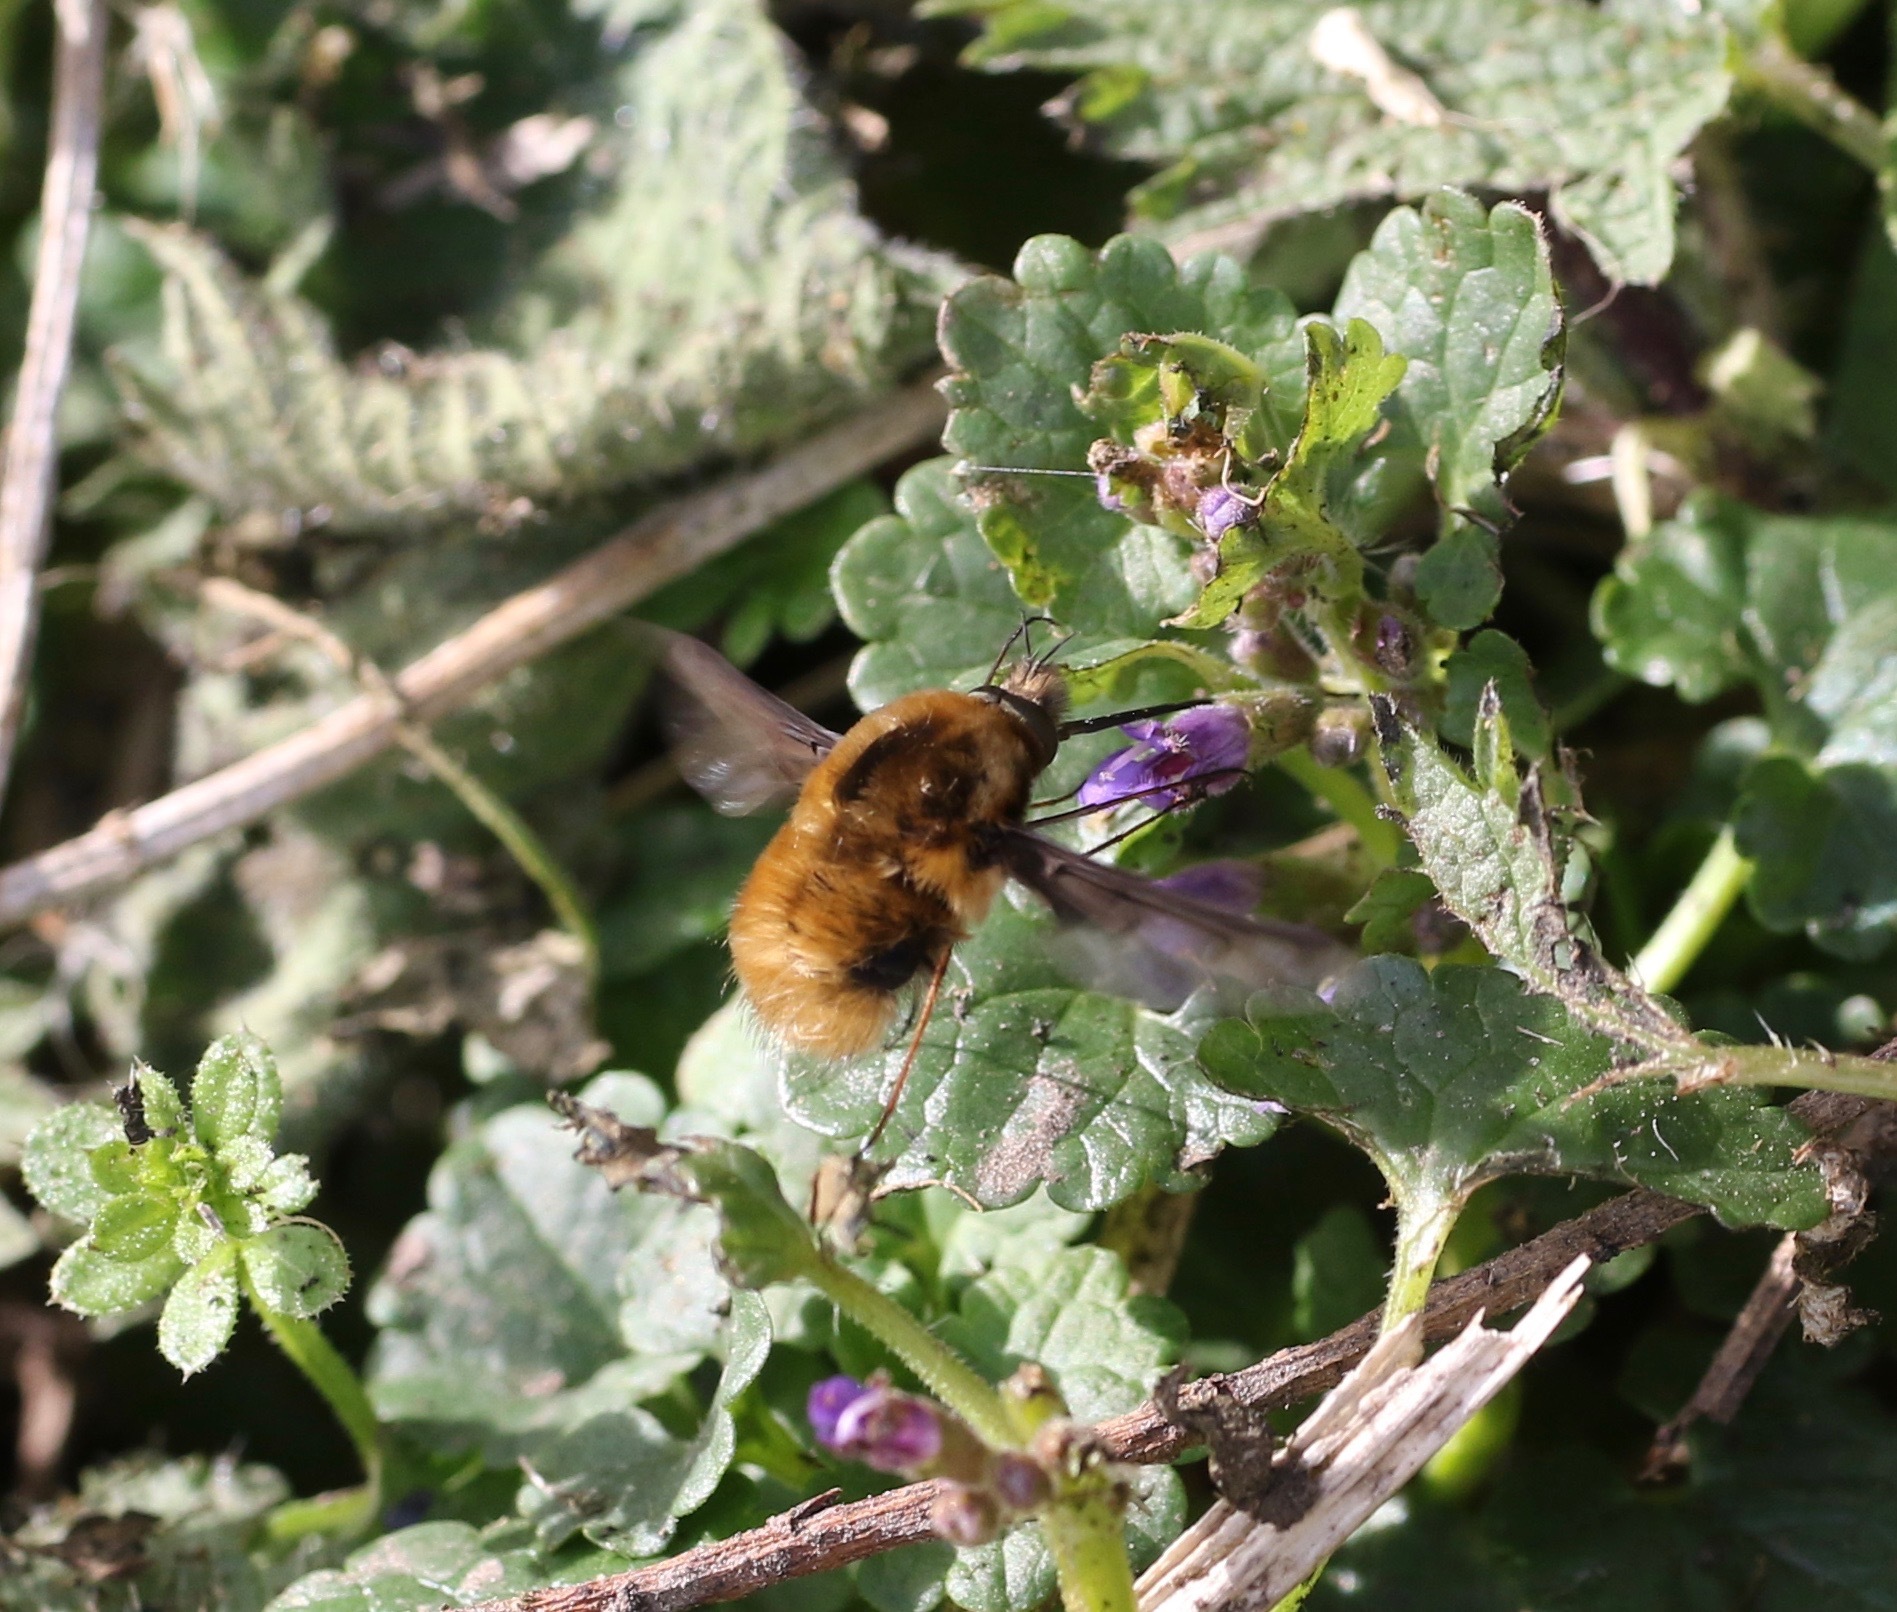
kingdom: Animalia
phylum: Arthropoda
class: Insecta
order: Diptera
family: Bombyliidae
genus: Bombylius
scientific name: Bombylius major
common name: Bee fly
